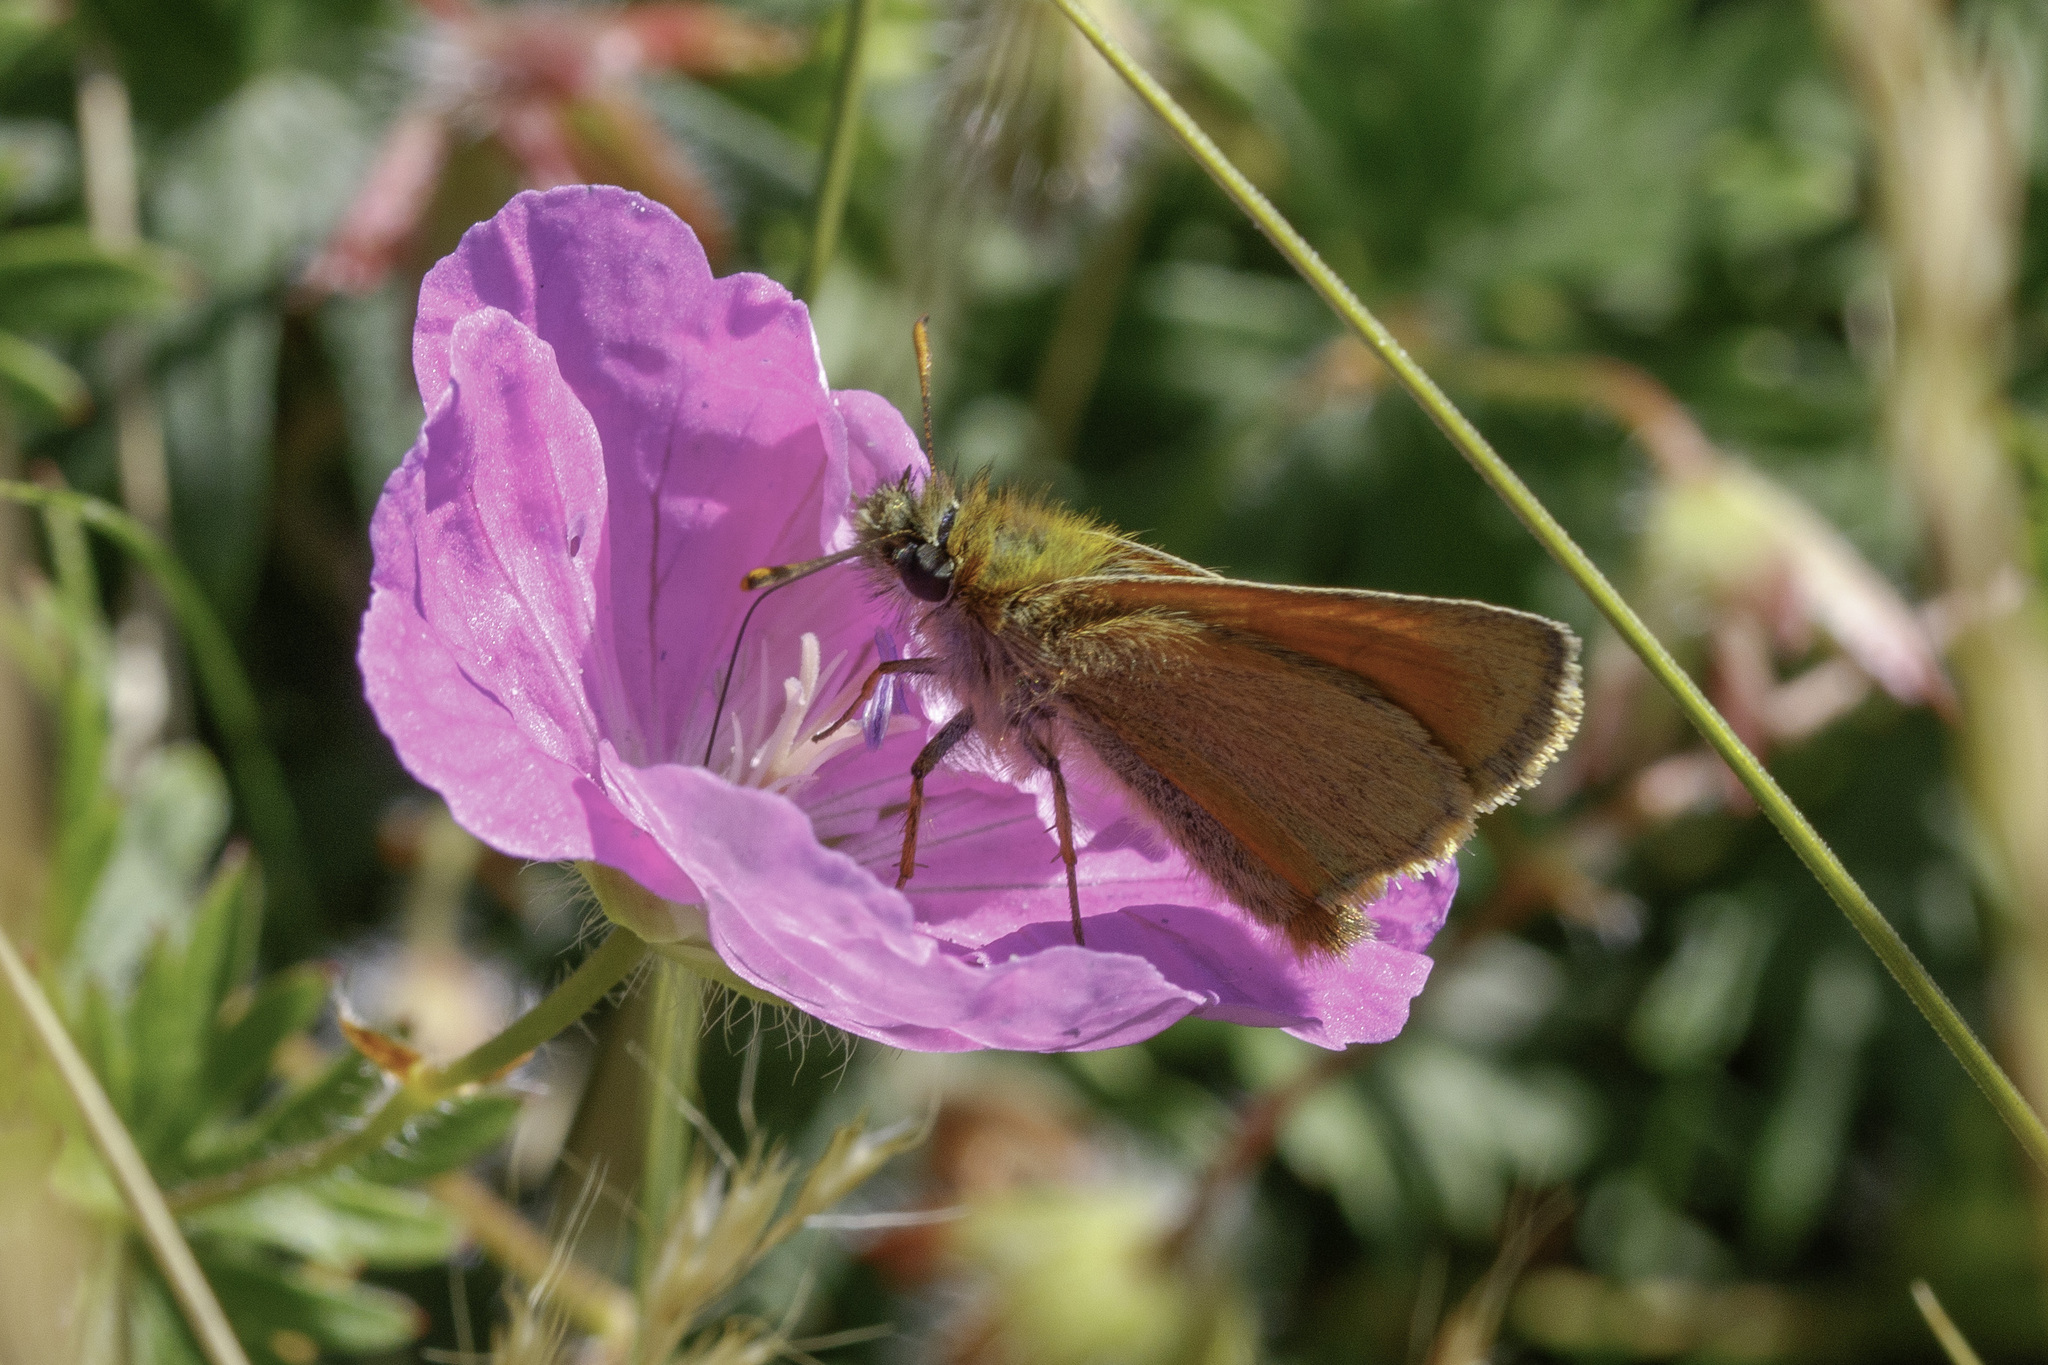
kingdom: Animalia
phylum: Arthropoda
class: Insecta
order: Lepidoptera
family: Hesperiidae
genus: Thymelicus
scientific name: Thymelicus sylvestris
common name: Small skipper
